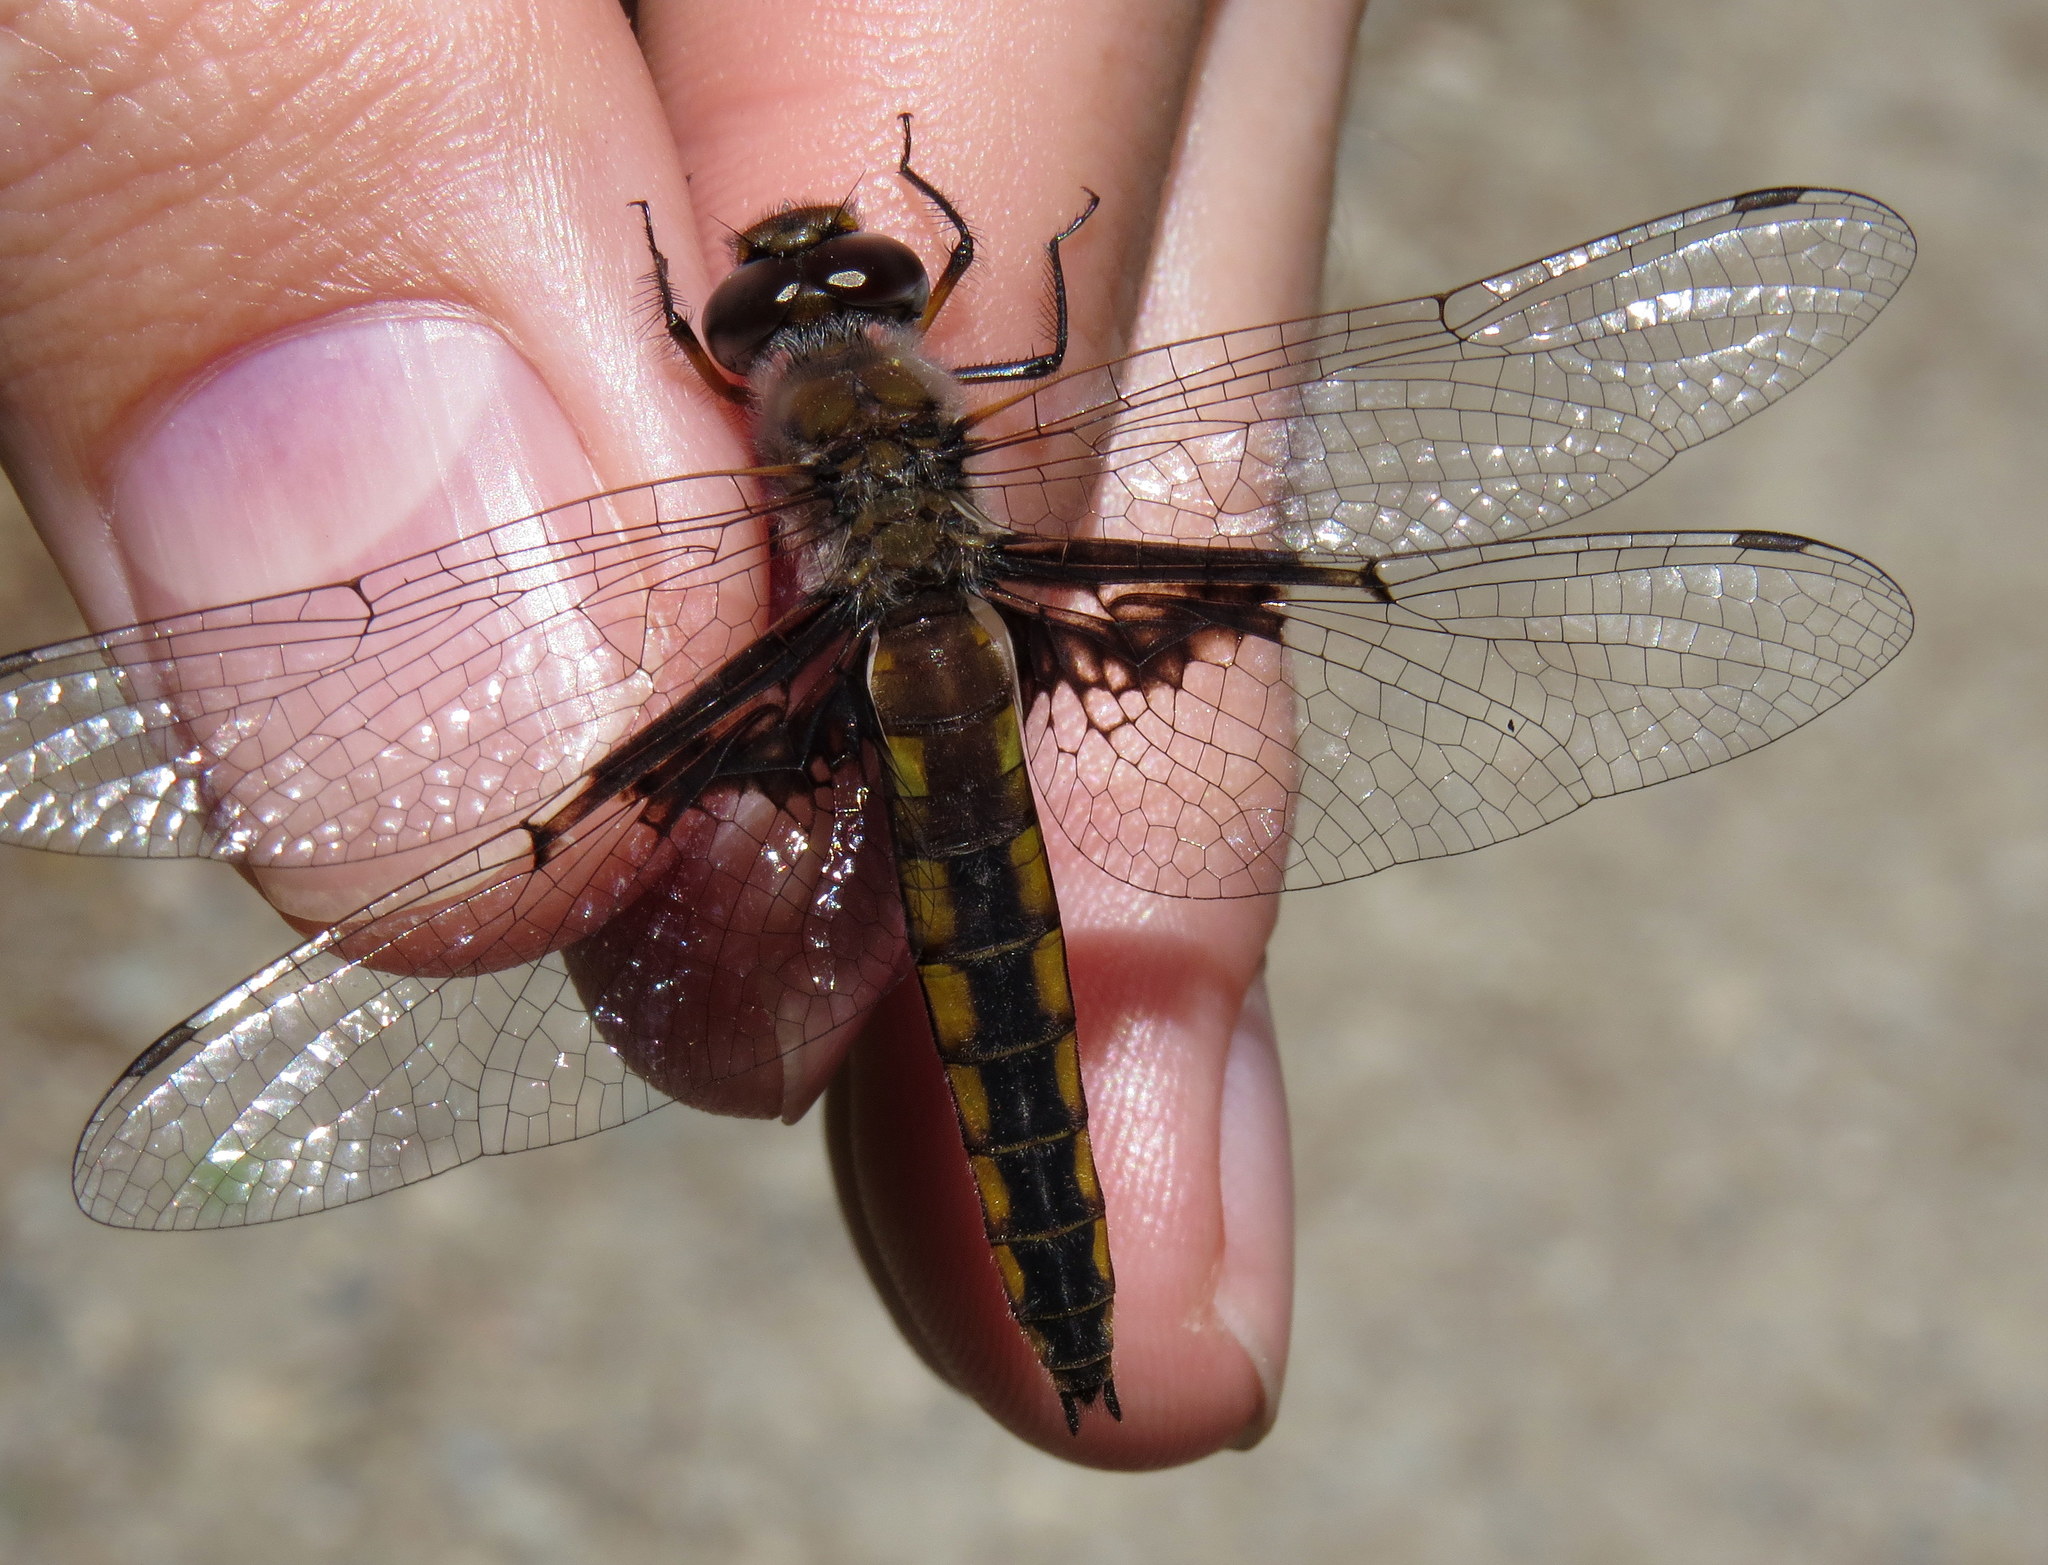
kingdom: Animalia
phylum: Arthropoda
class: Insecta
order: Odonata
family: Corduliidae
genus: Epitheca
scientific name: Epitheca semiaquea
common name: Mantled baskettail
